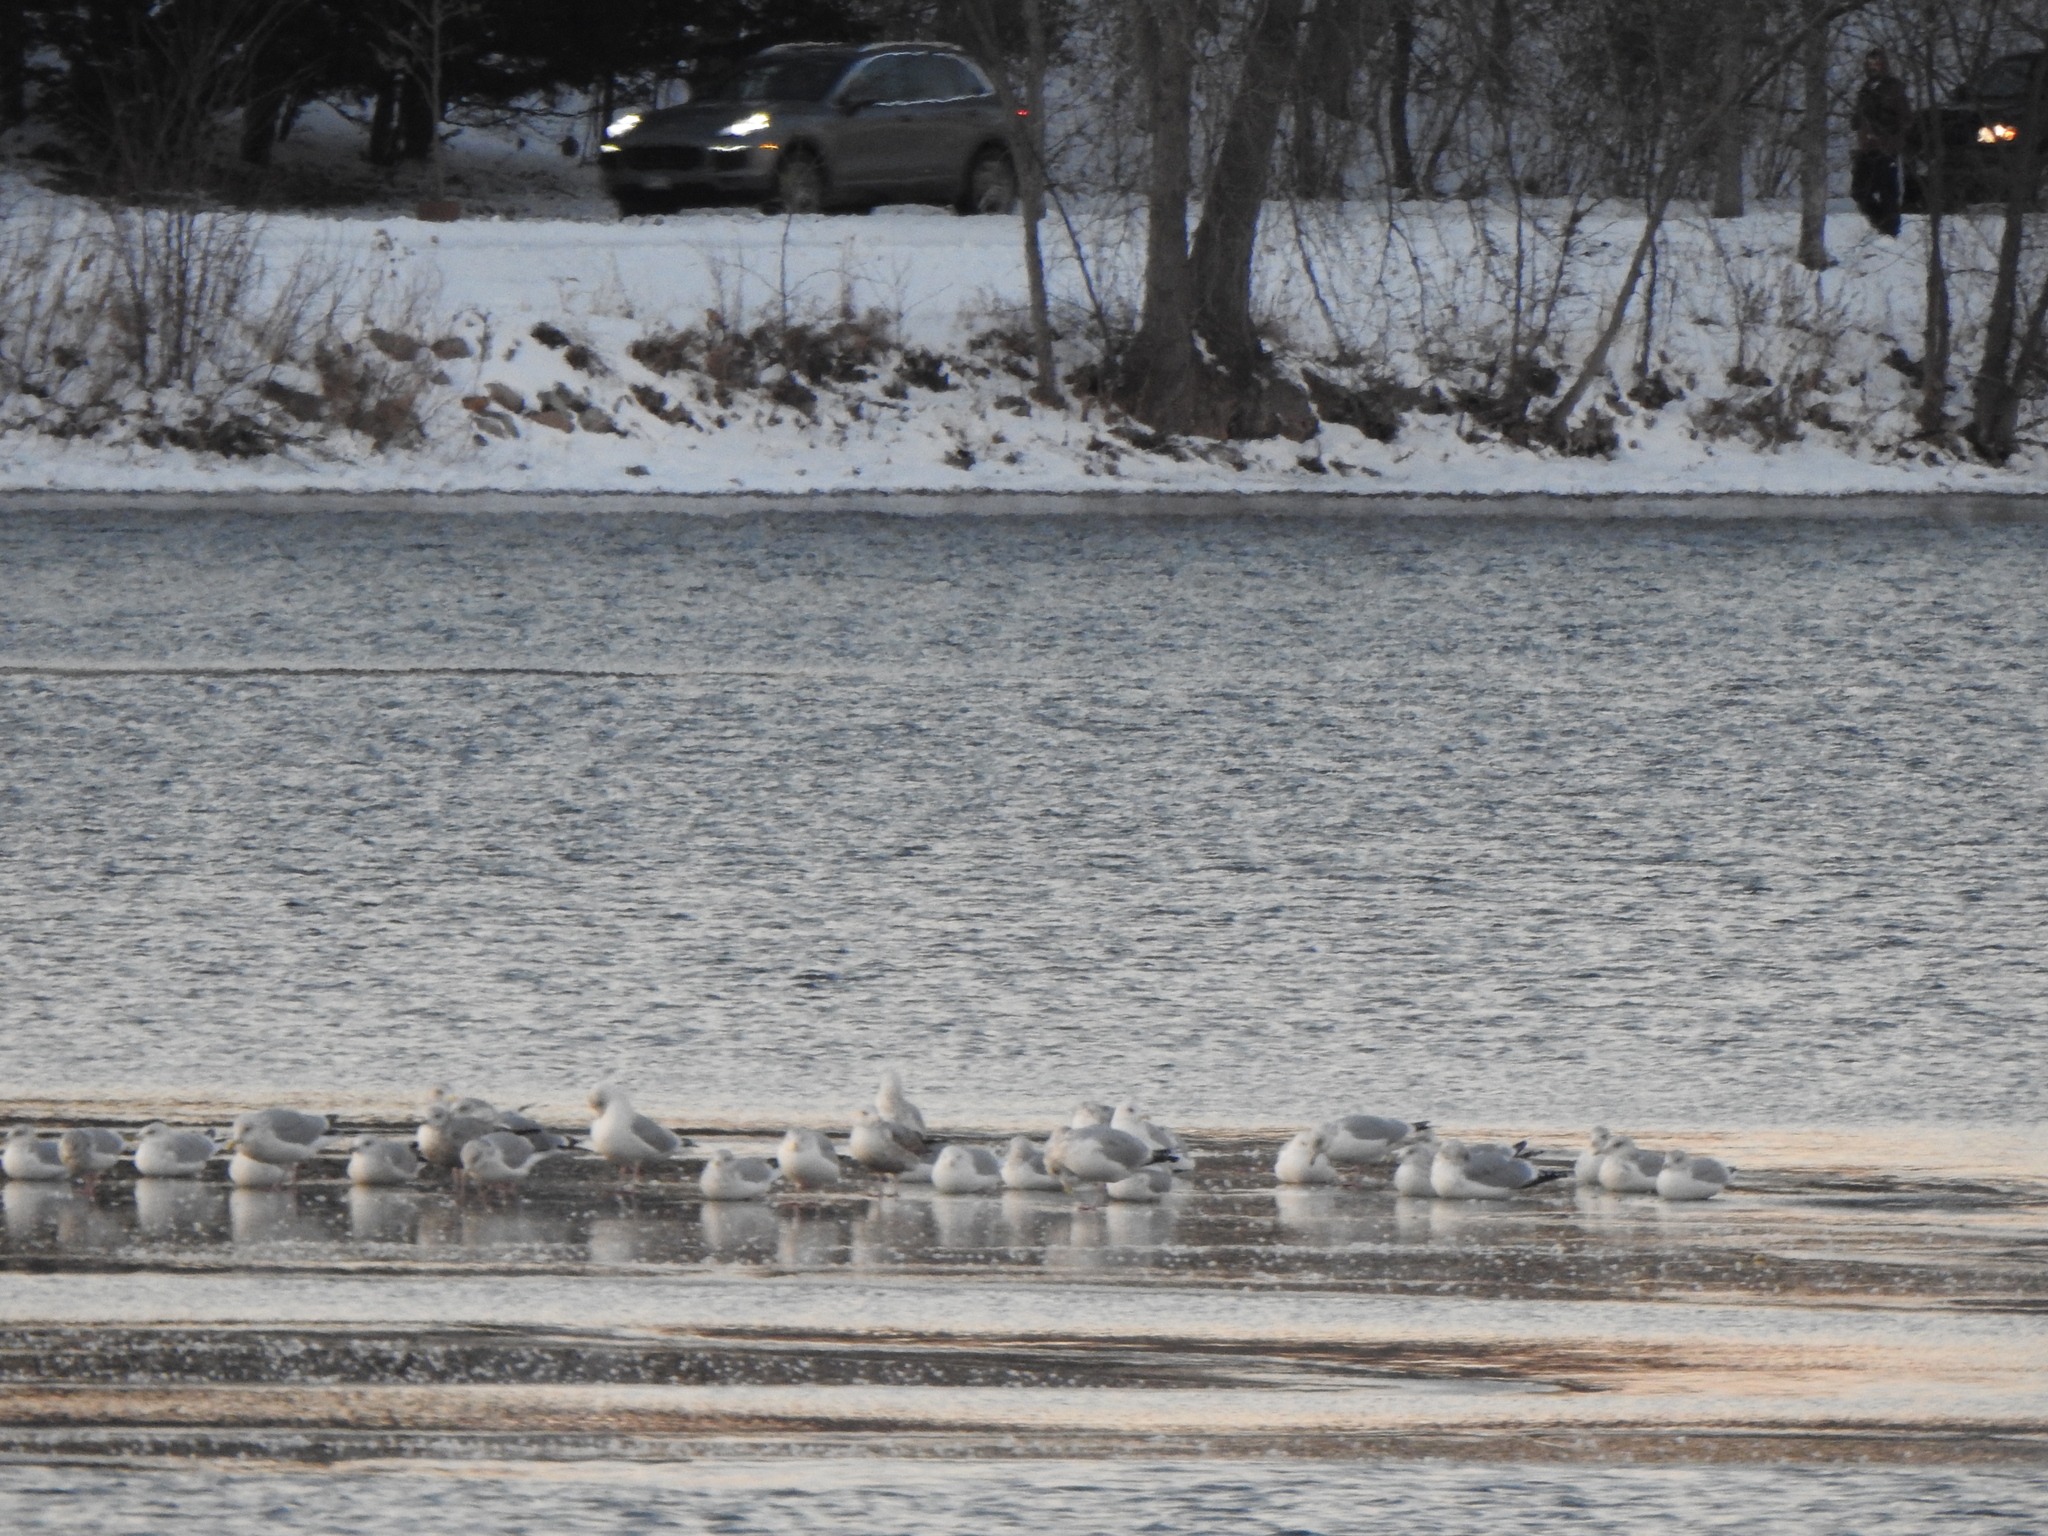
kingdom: Animalia
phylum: Chordata
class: Aves
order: Charadriiformes
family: Laridae
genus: Larus
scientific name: Larus delawarensis
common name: Ring-billed gull
